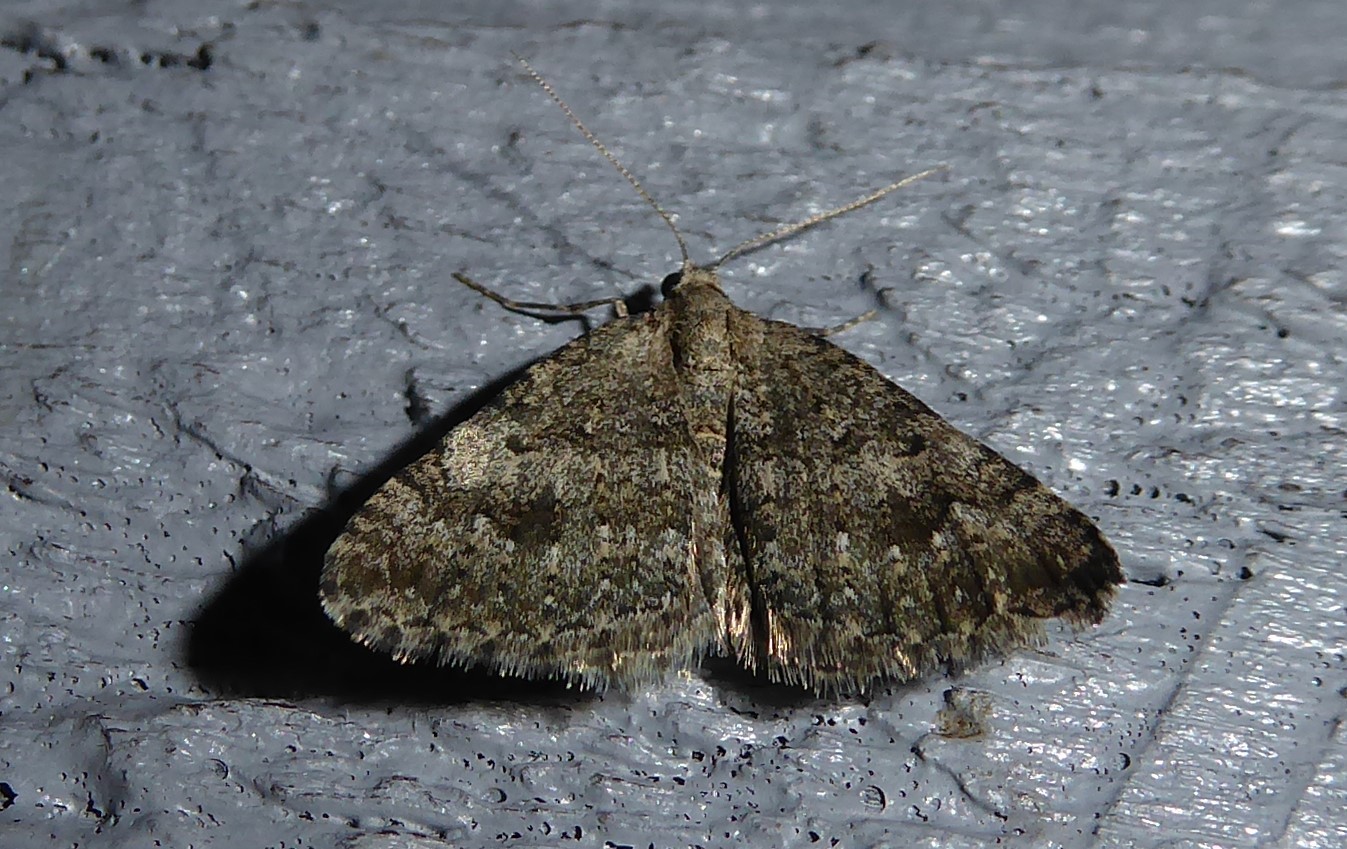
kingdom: Animalia
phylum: Arthropoda
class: Insecta
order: Lepidoptera
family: Geometridae
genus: Helastia
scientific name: Helastia corcularia
